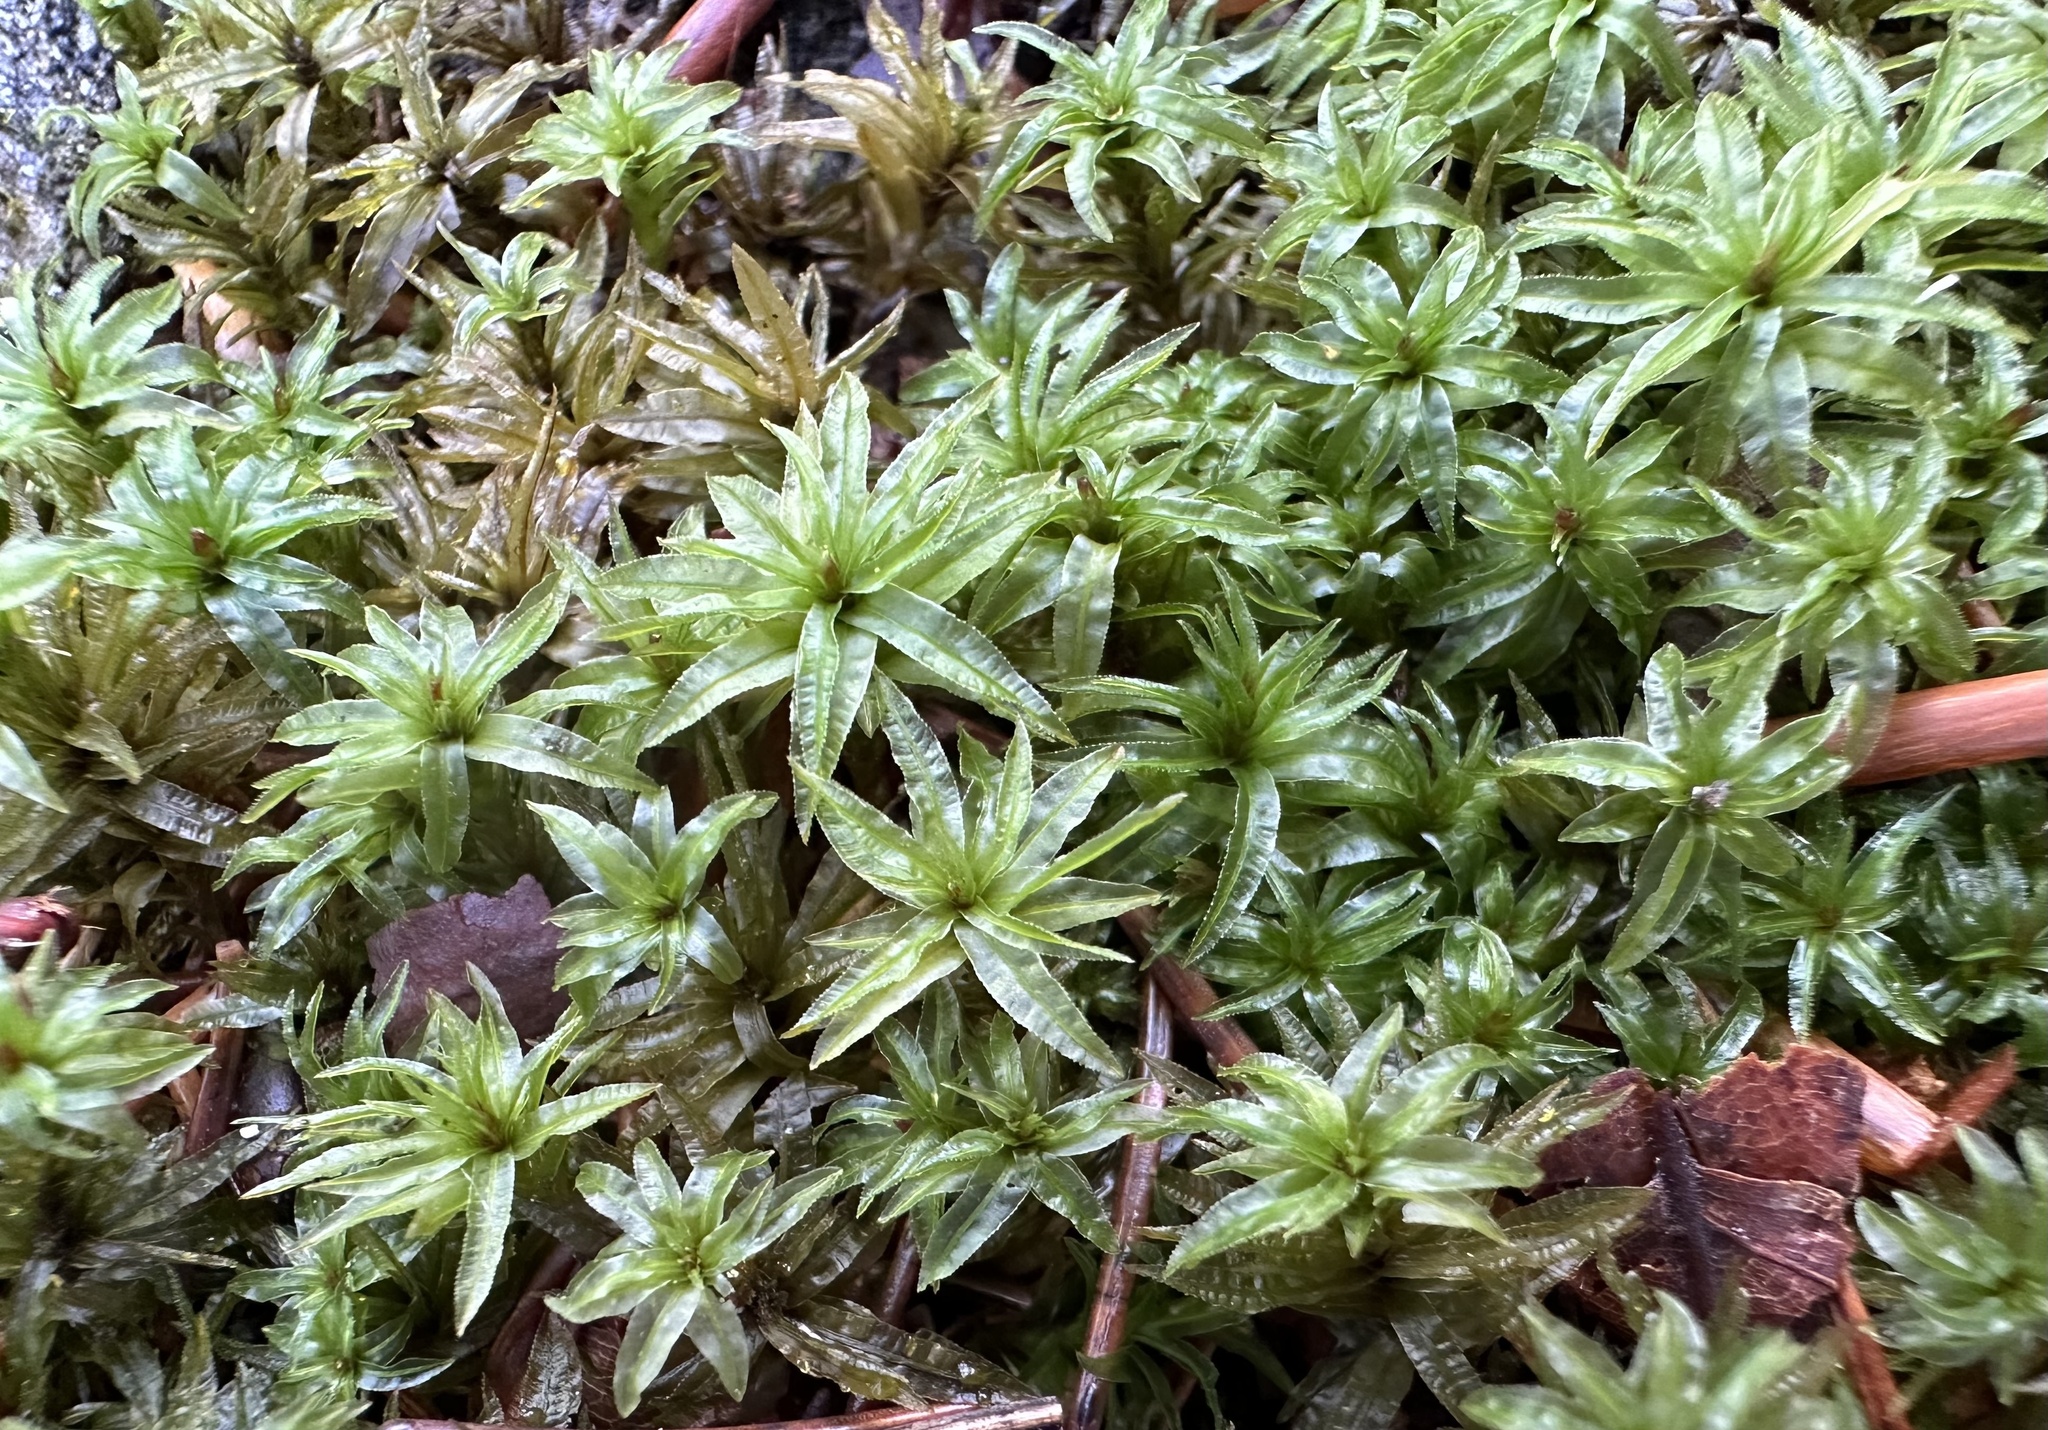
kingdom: Plantae
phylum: Bryophyta
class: Polytrichopsida
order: Polytrichales
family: Polytrichaceae
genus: Atrichum
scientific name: Atrichum undulatum
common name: Common smoothcap
